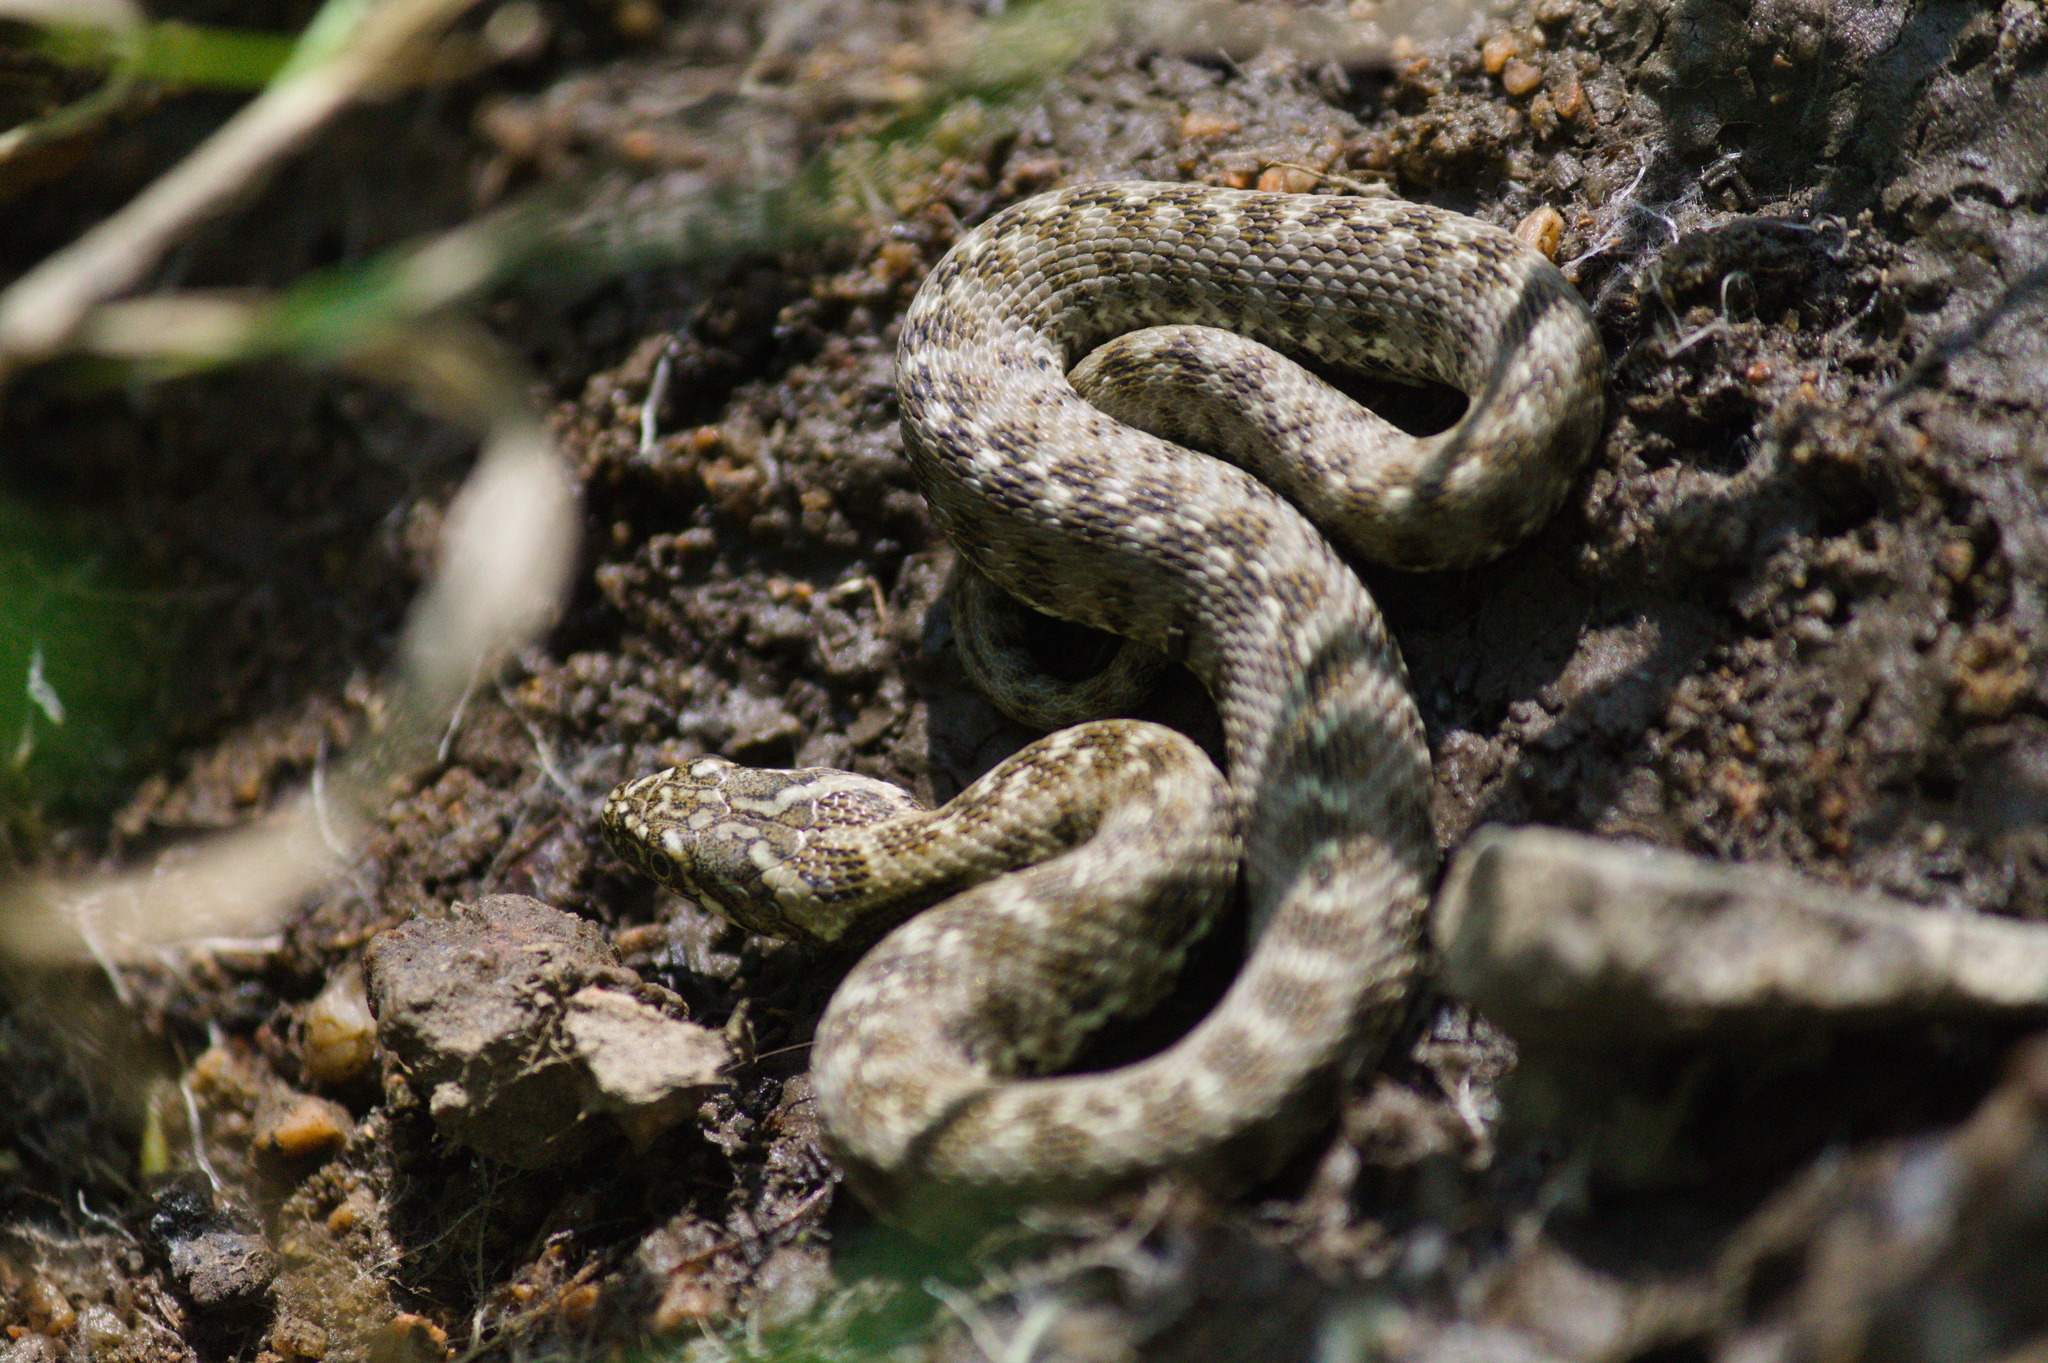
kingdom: Animalia
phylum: Chordata
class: Squamata
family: Colubridae
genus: Natrix
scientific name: Natrix maura
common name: Viperine water snake
